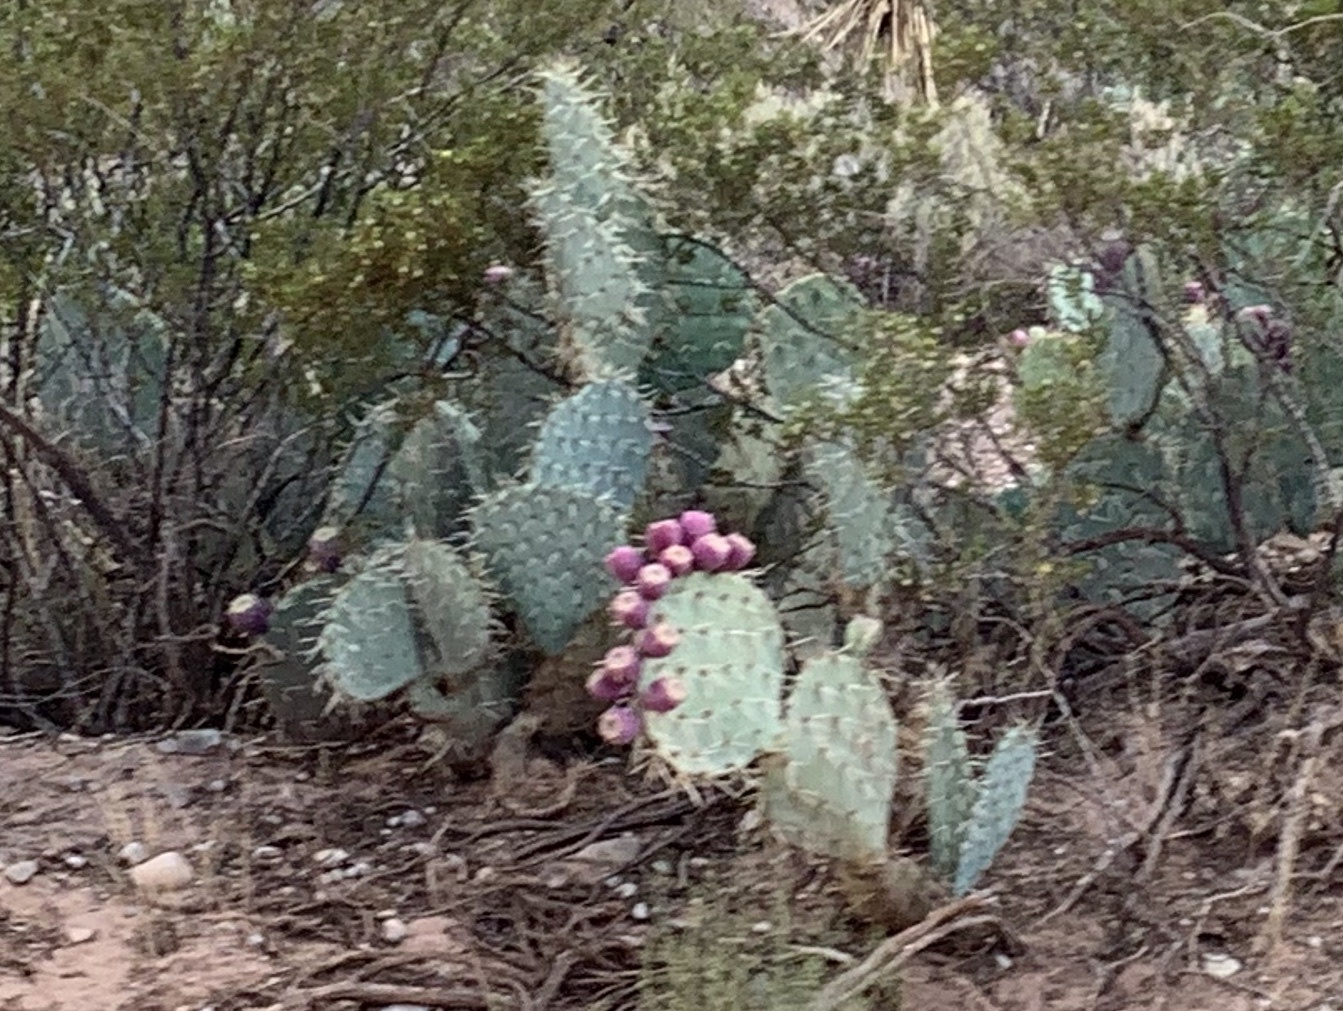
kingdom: Plantae
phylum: Tracheophyta
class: Magnoliopsida
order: Caryophyllales
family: Cactaceae
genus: Opuntia
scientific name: Opuntia engelmannii
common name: Cactus-apple
